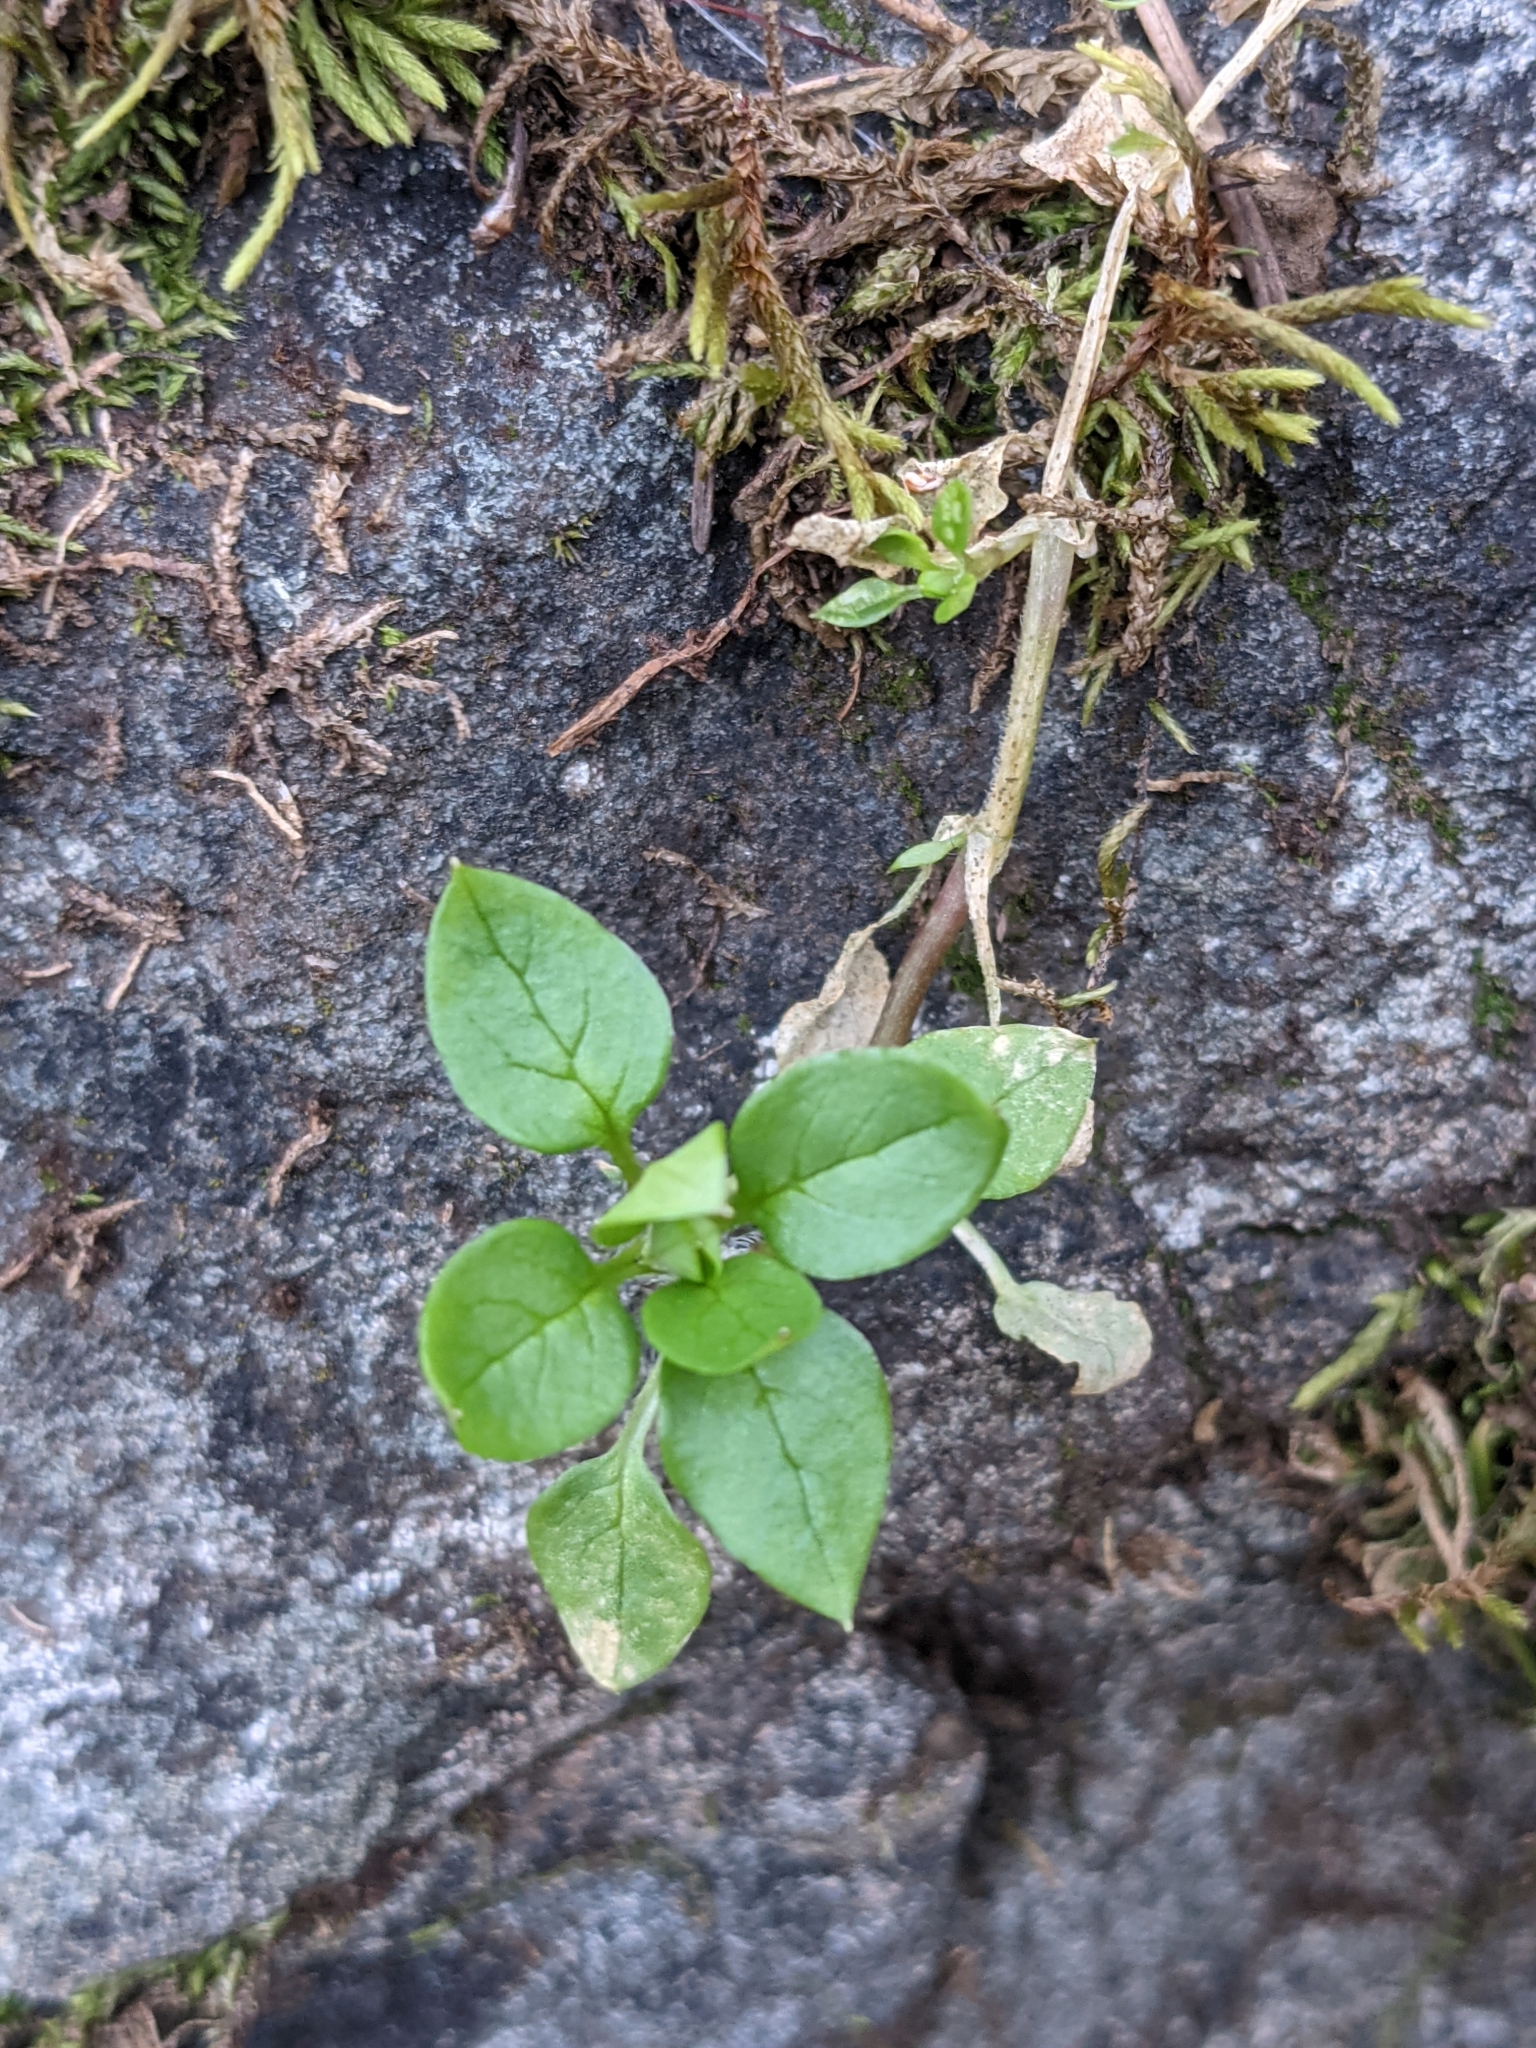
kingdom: Plantae
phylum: Tracheophyta
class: Magnoliopsida
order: Caryophyllales
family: Caryophyllaceae
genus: Stellaria
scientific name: Stellaria media
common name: Common chickweed
